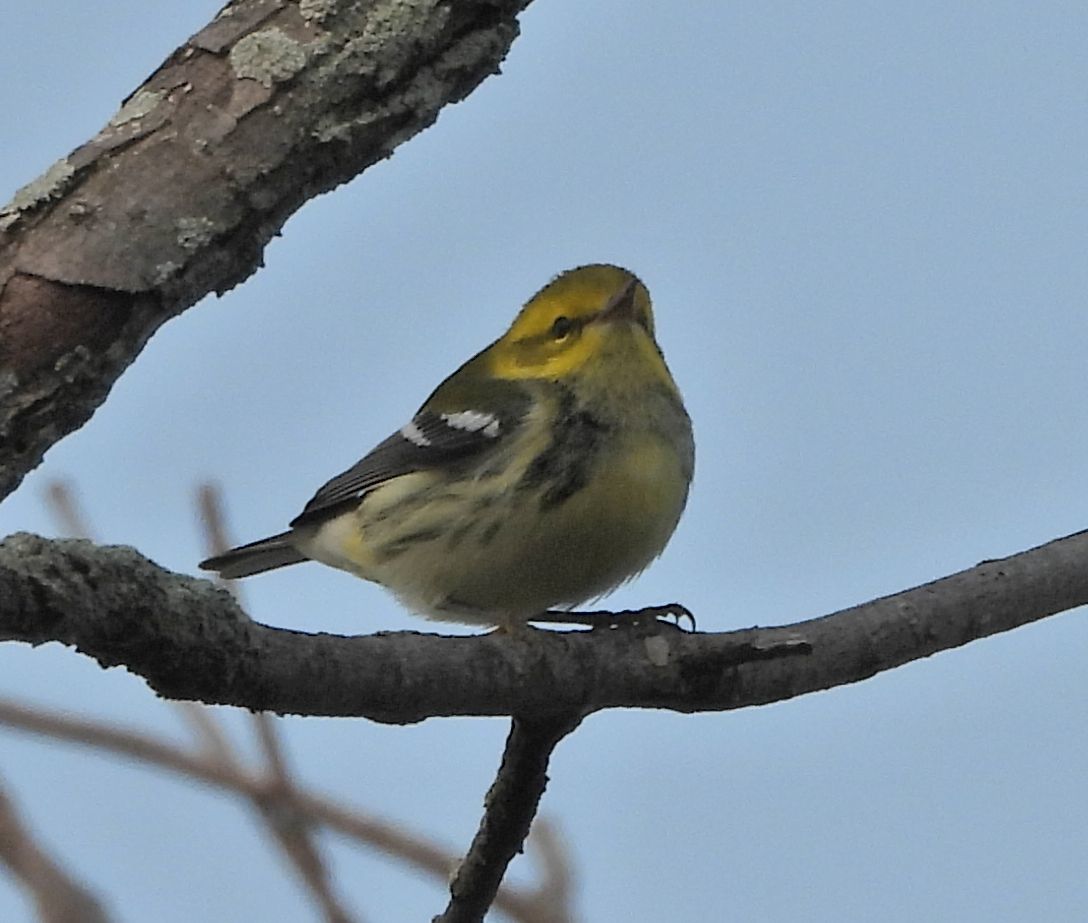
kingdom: Animalia
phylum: Chordata
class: Aves
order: Passeriformes
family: Parulidae
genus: Setophaga
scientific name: Setophaga virens
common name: Black-throated green warbler
